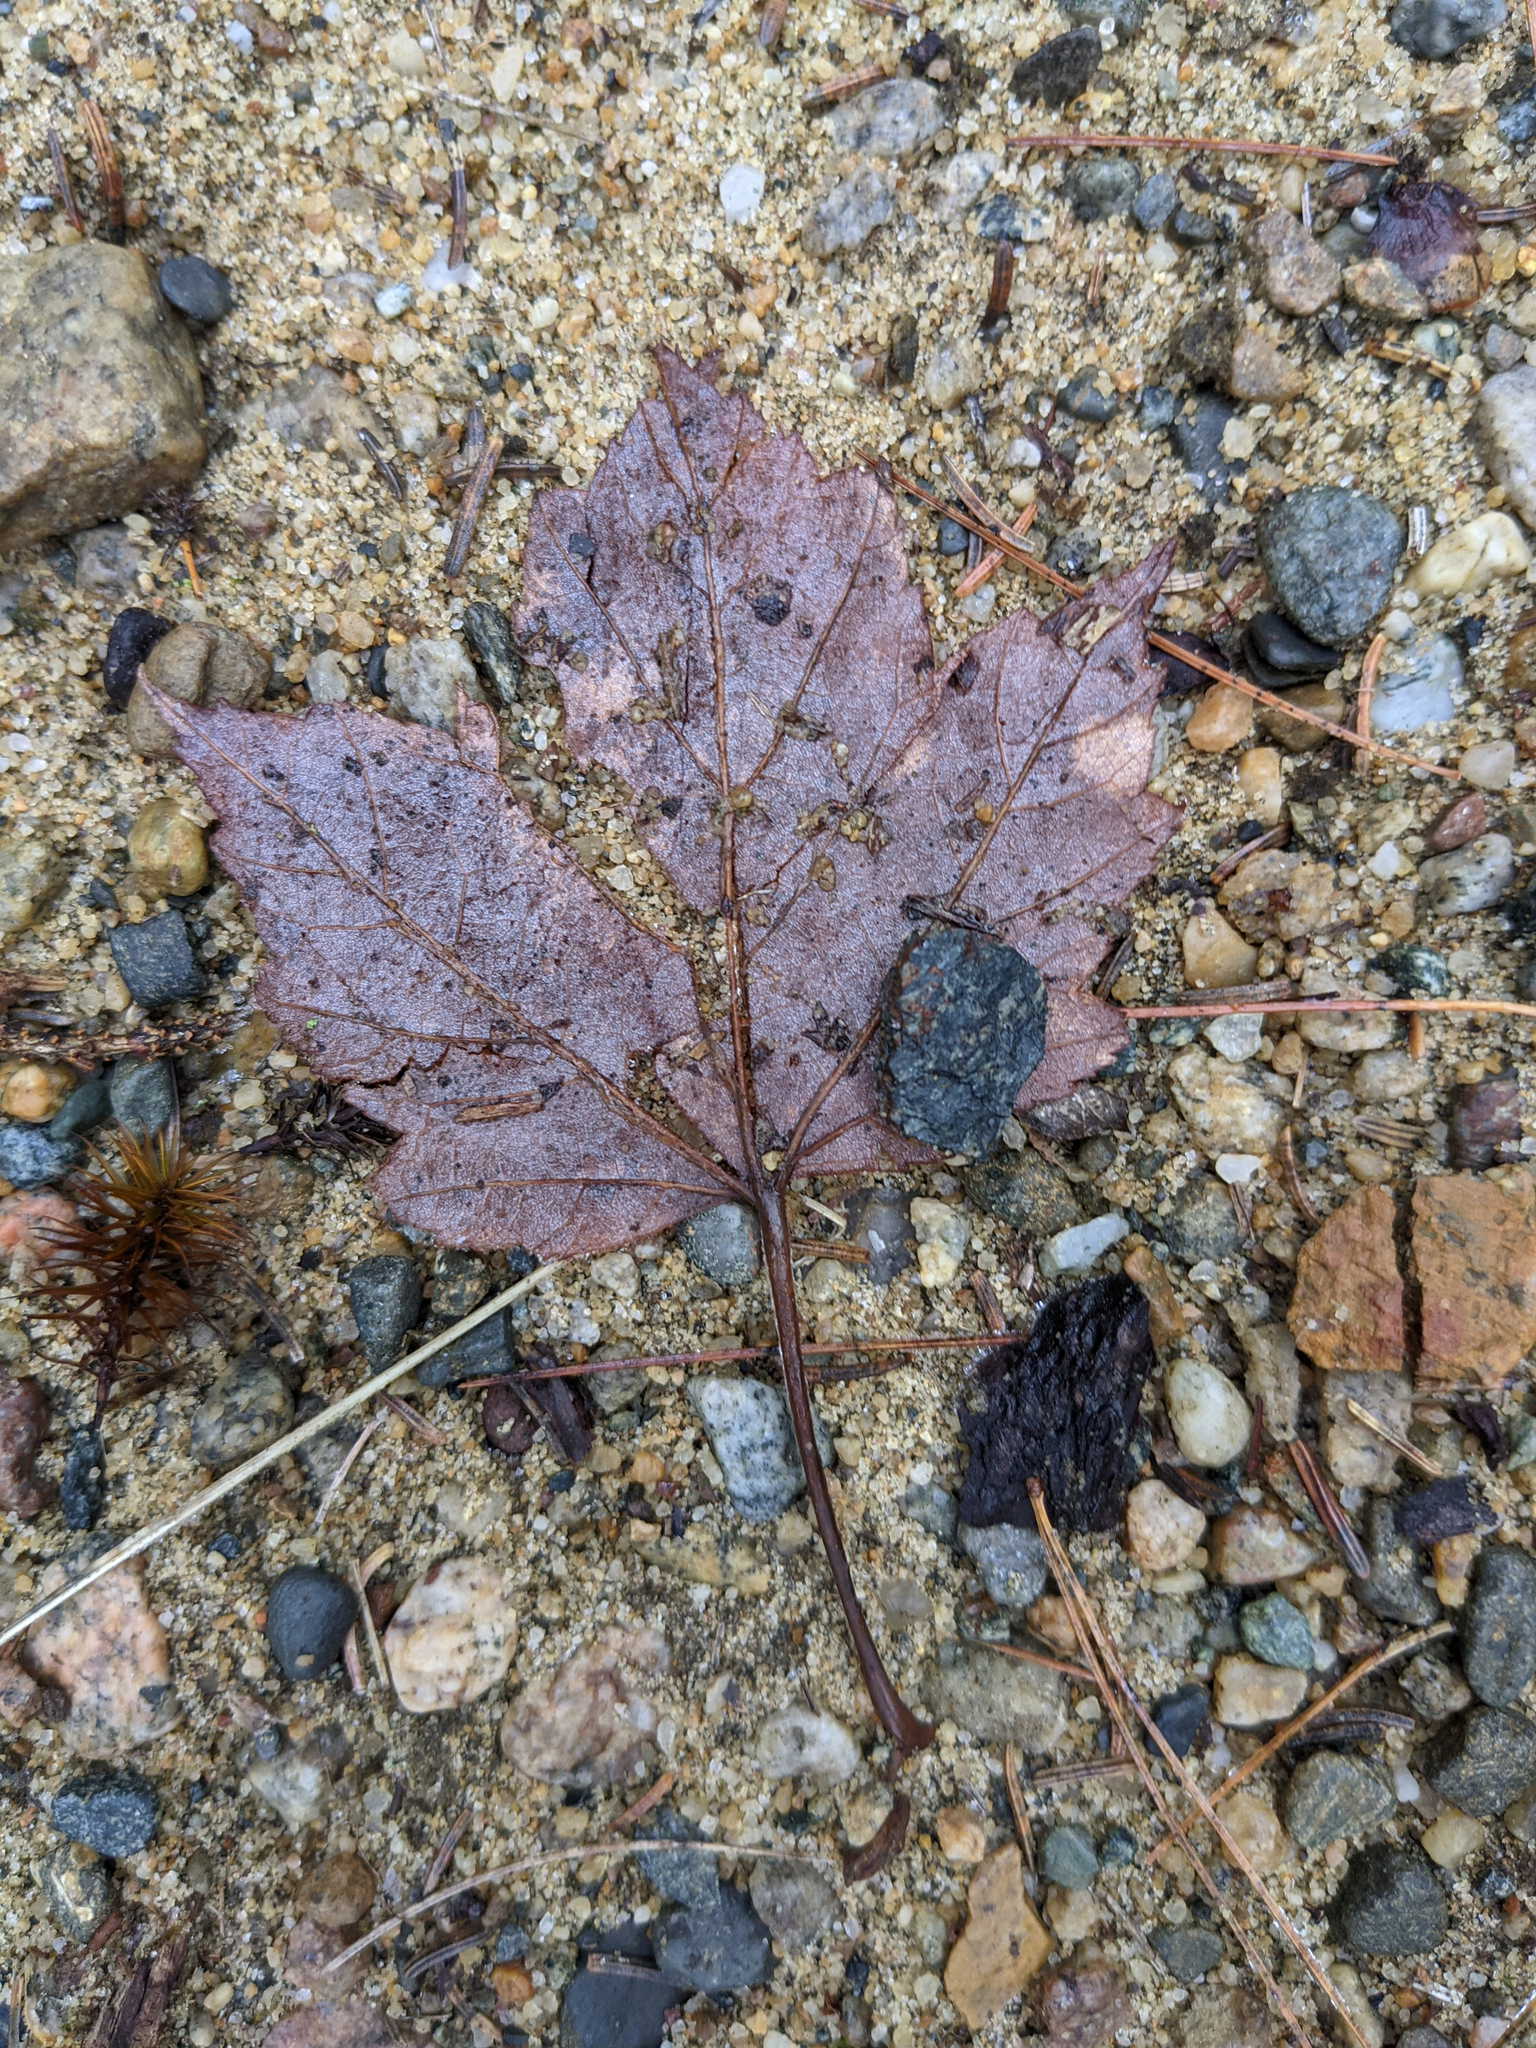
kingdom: Plantae
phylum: Tracheophyta
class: Magnoliopsida
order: Sapindales
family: Sapindaceae
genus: Acer
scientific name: Acer rubrum
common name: Red maple
